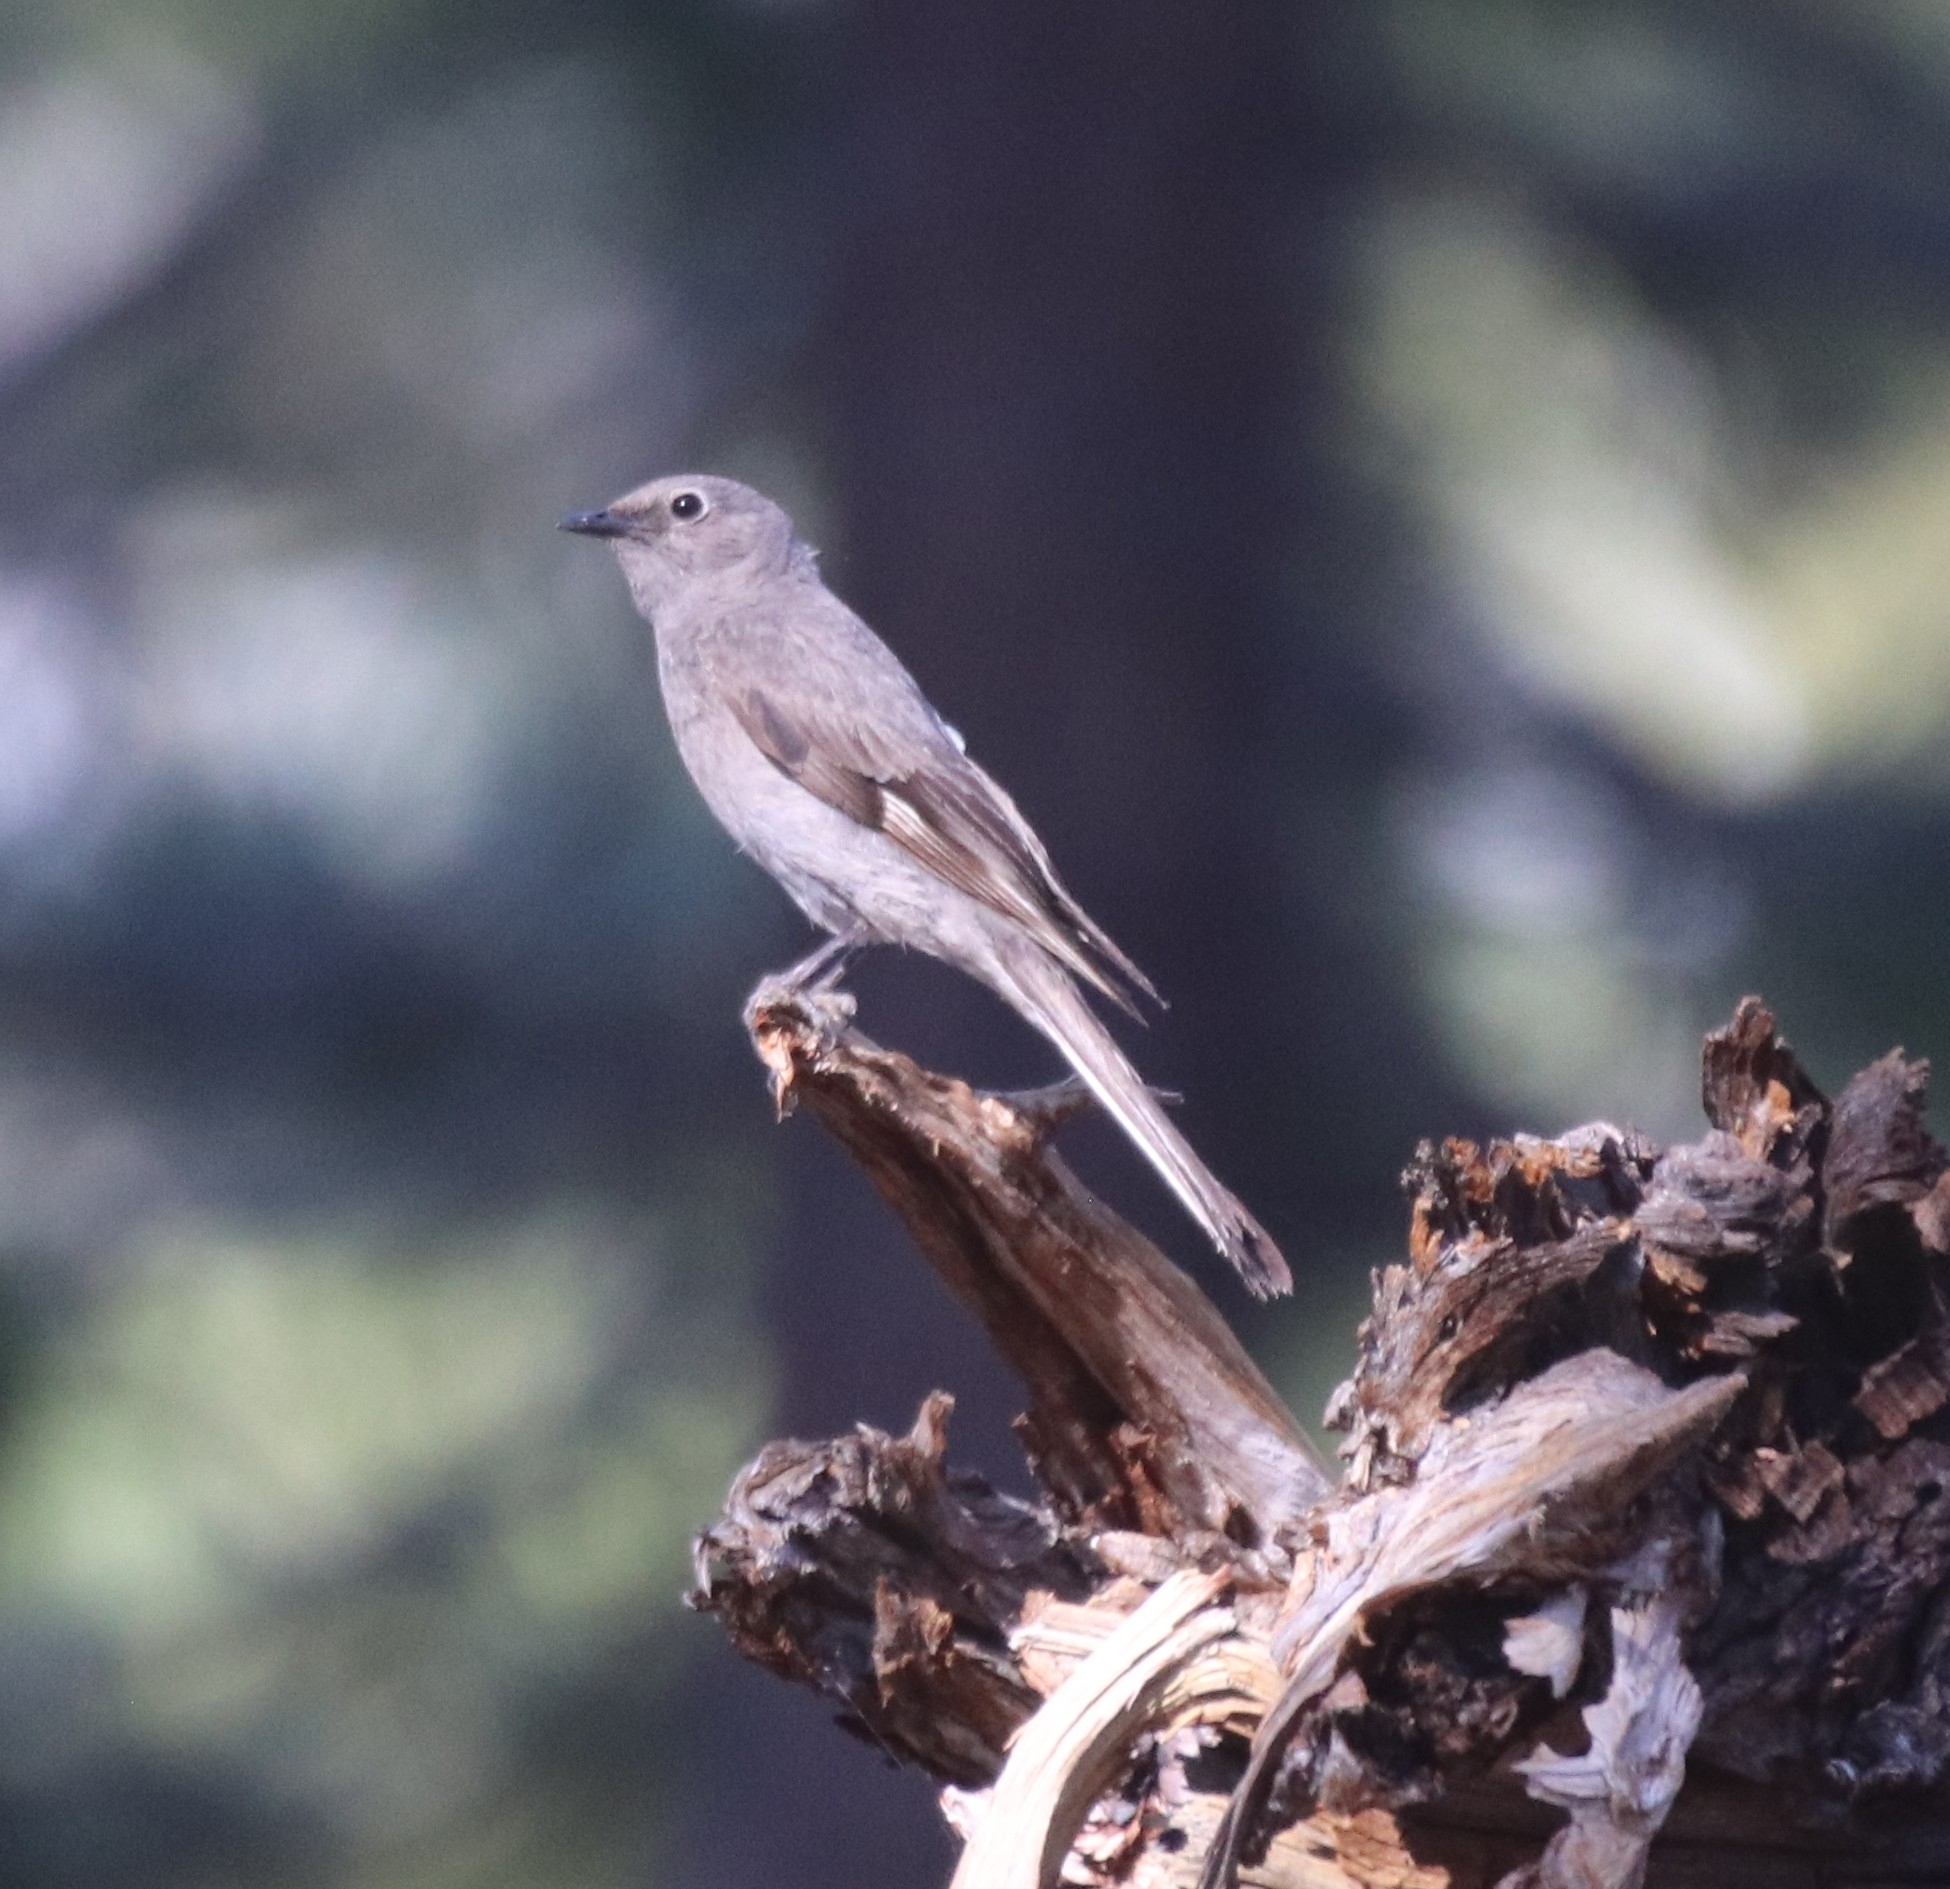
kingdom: Animalia
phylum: Chordata
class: Aves
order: Passeriformes
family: Turdidae
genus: Myadestes
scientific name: Myadestes townsendi
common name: Townsend's solitaire
